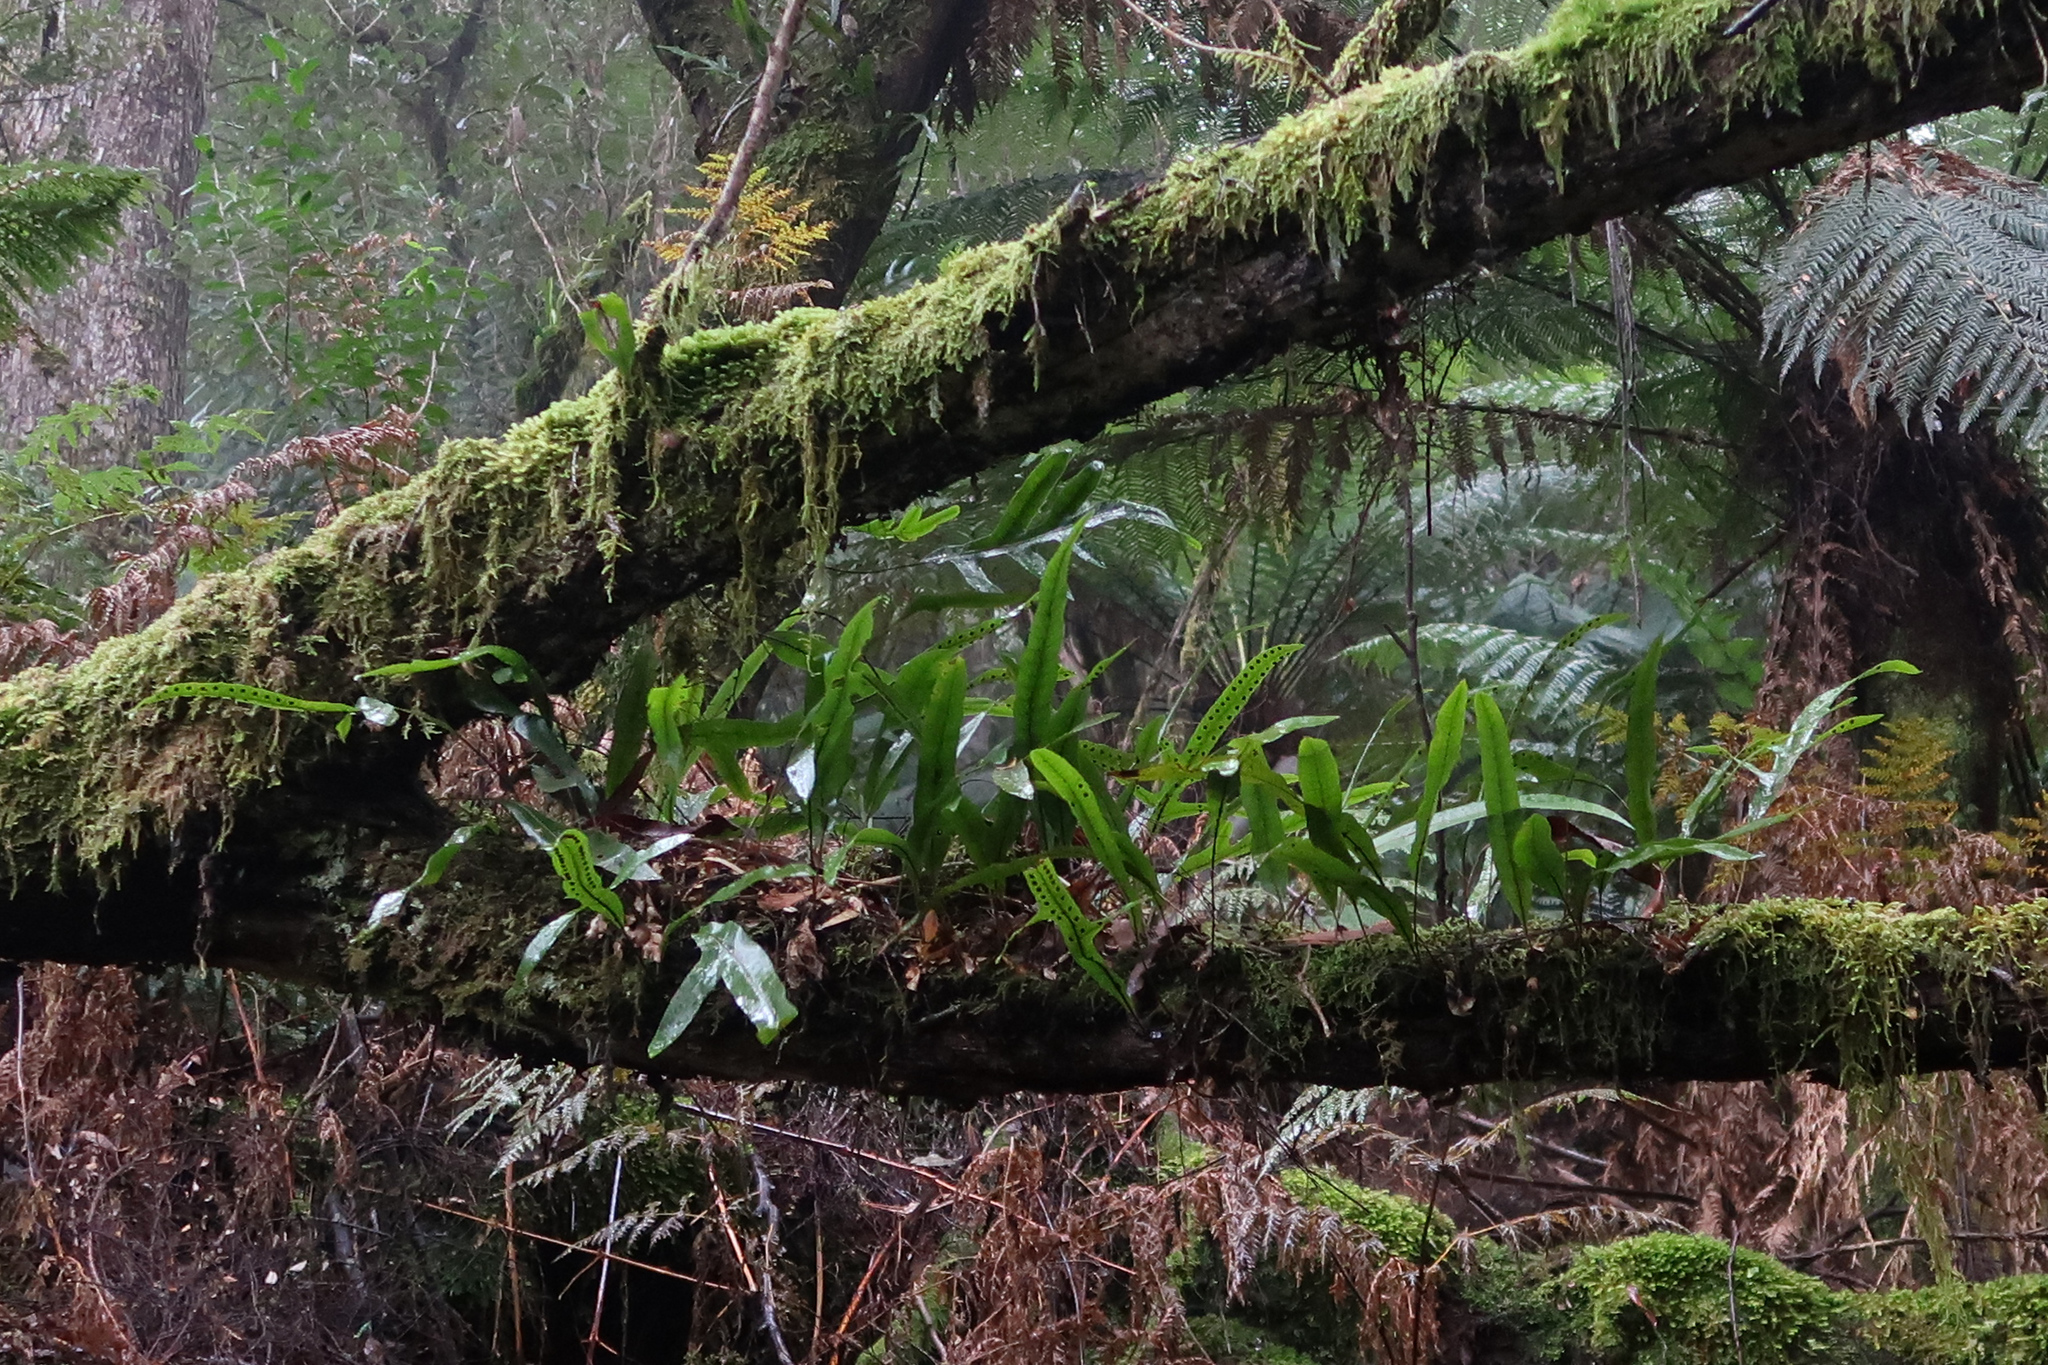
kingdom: Plantae
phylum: Tracheophyta
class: Polypodiopsida
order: Polypodiales
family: Polypodiaceae
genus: Lecanopteris
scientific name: Lecanopteris pustulata
